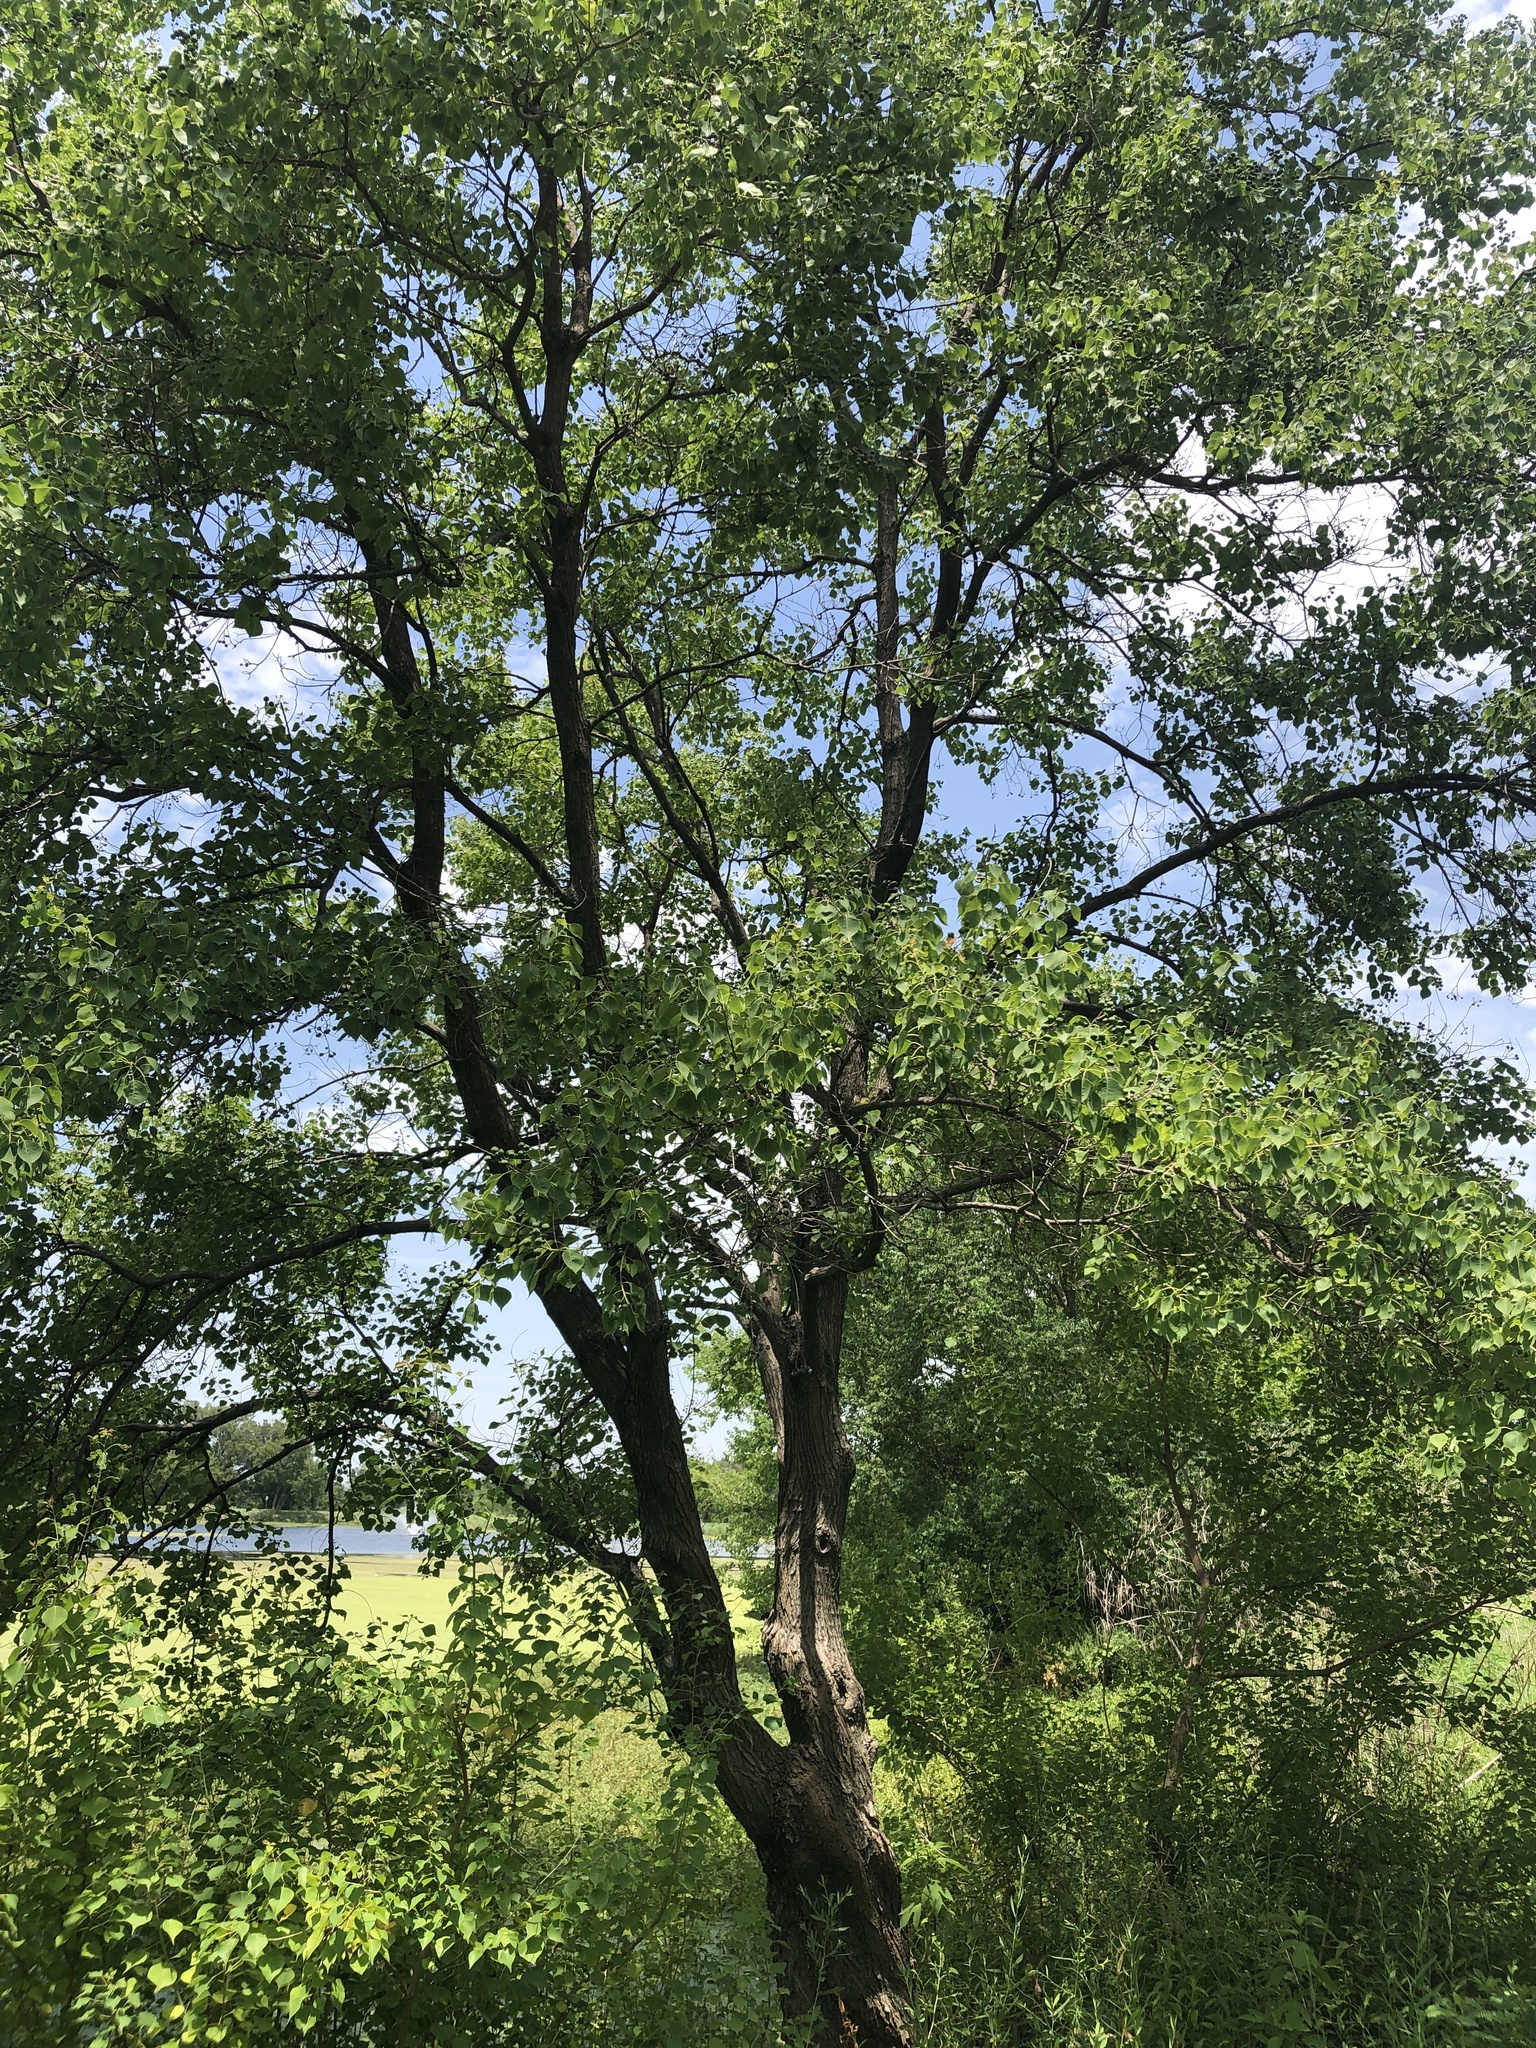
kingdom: Plantae
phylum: Tracheophyta
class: Magnoliopsida
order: Malpighiales
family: Euphorbiaceae
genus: Triadica
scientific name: Triadica sebifera
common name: Chinese tallow
